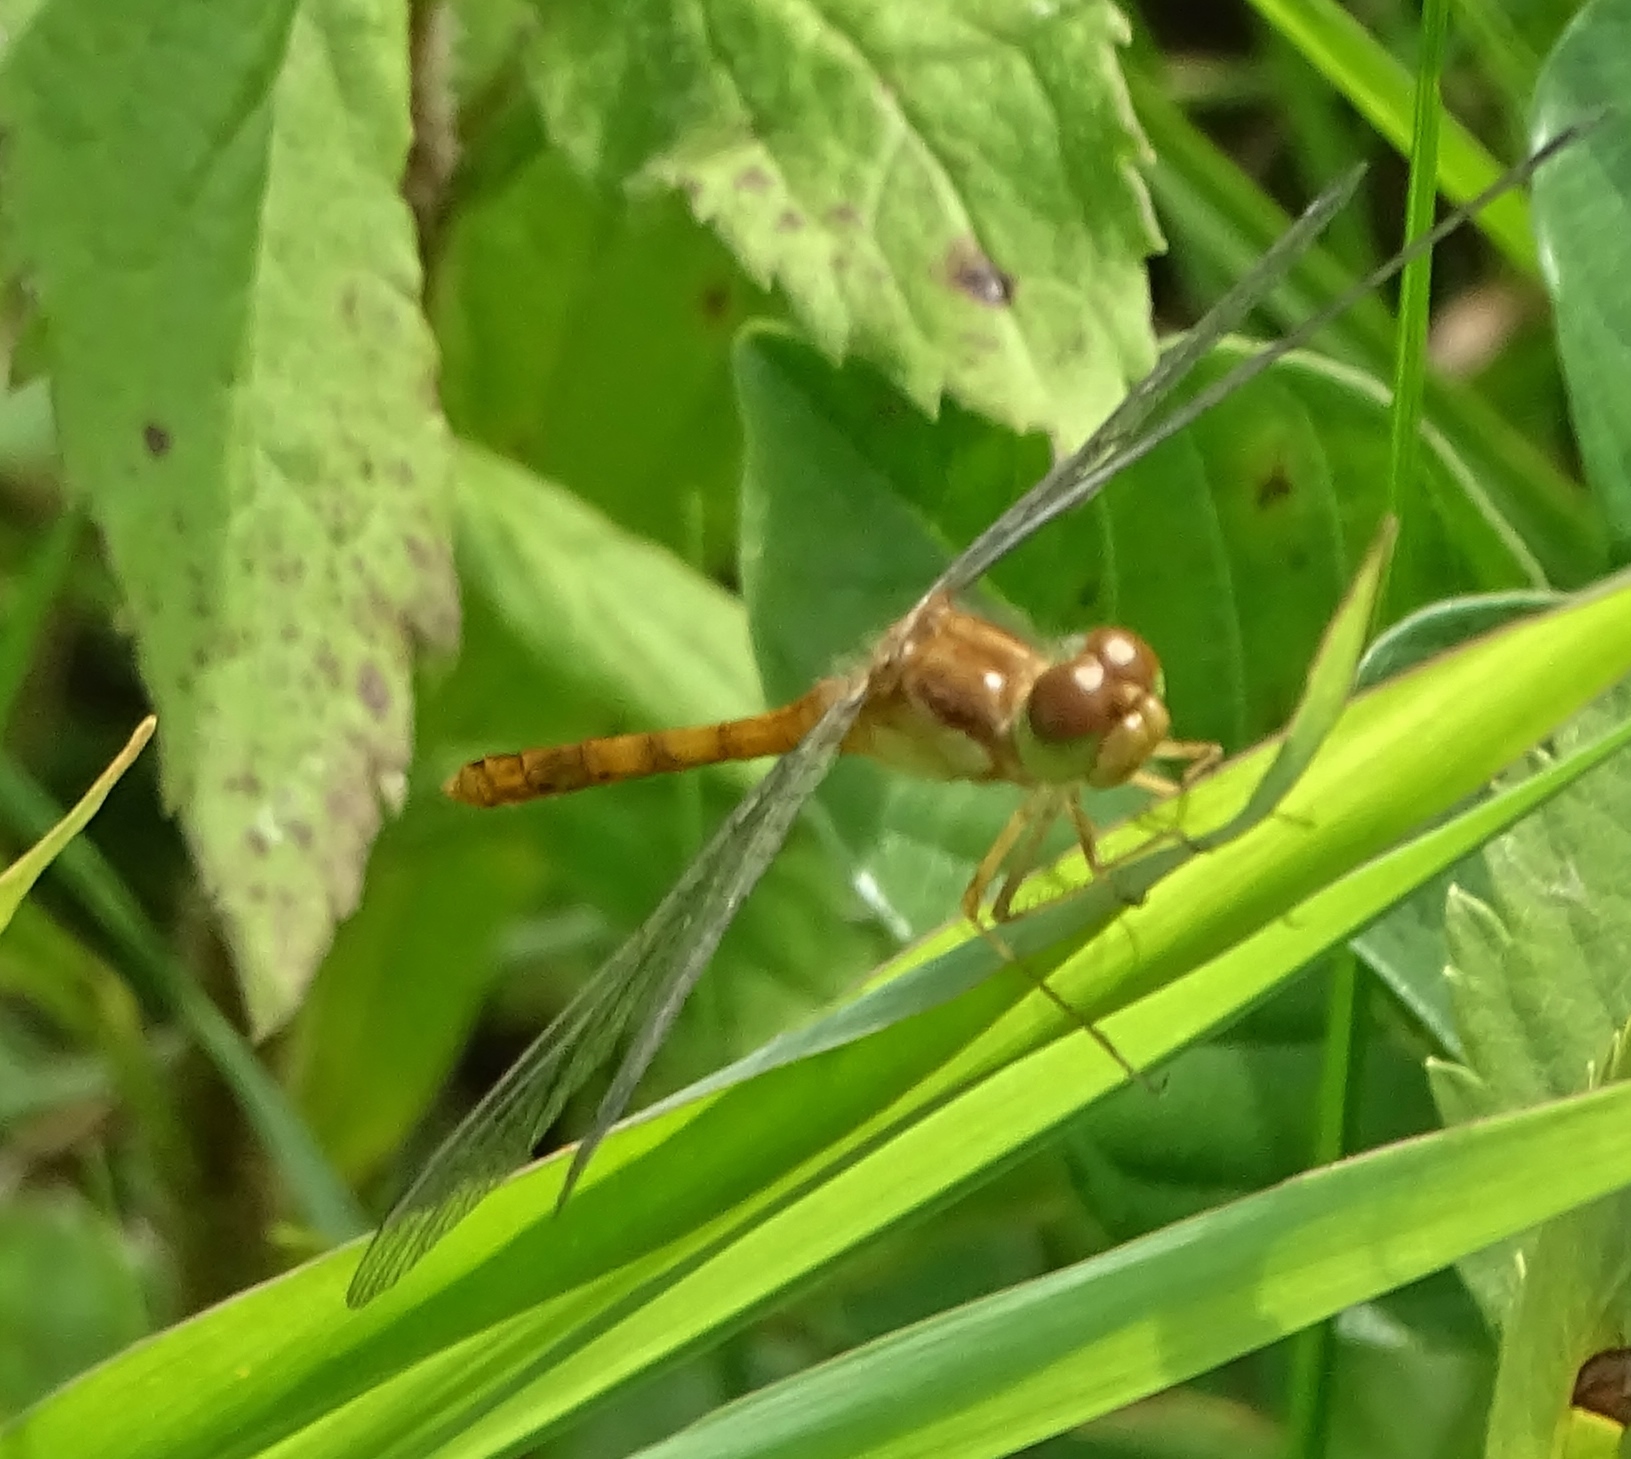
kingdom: Animalia
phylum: Arthropoda
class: Insecta
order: Odonata
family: Libellulidae
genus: Sympetrum
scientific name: Sympetrum vicinum
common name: Autumn meadowhawk
